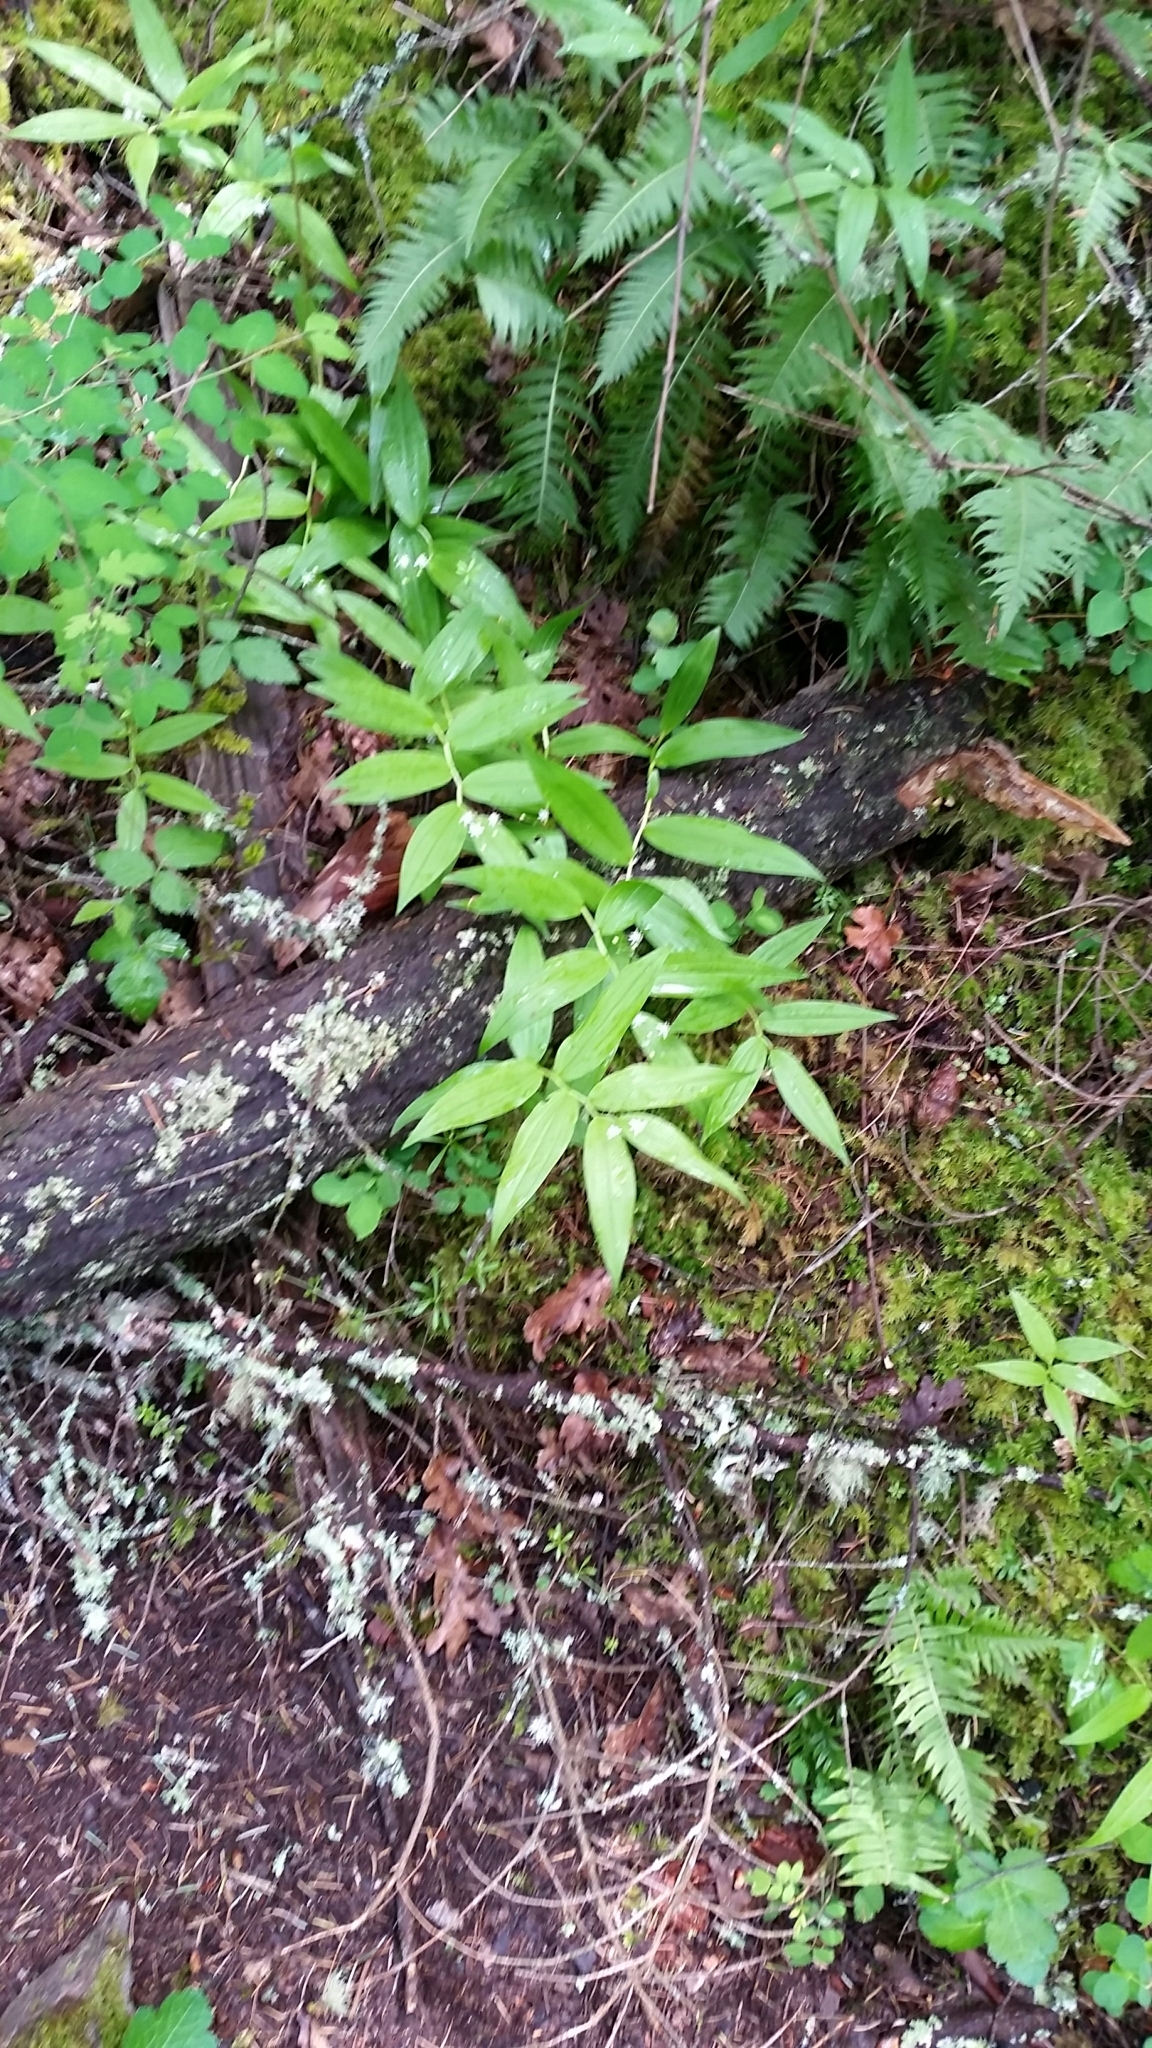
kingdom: Plantae
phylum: Tracheophyta
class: Liliopsida
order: Asparagales
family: Asparagaceae
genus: Maianthemum
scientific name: Maianthemum stellatum
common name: Little false solomon's seal
